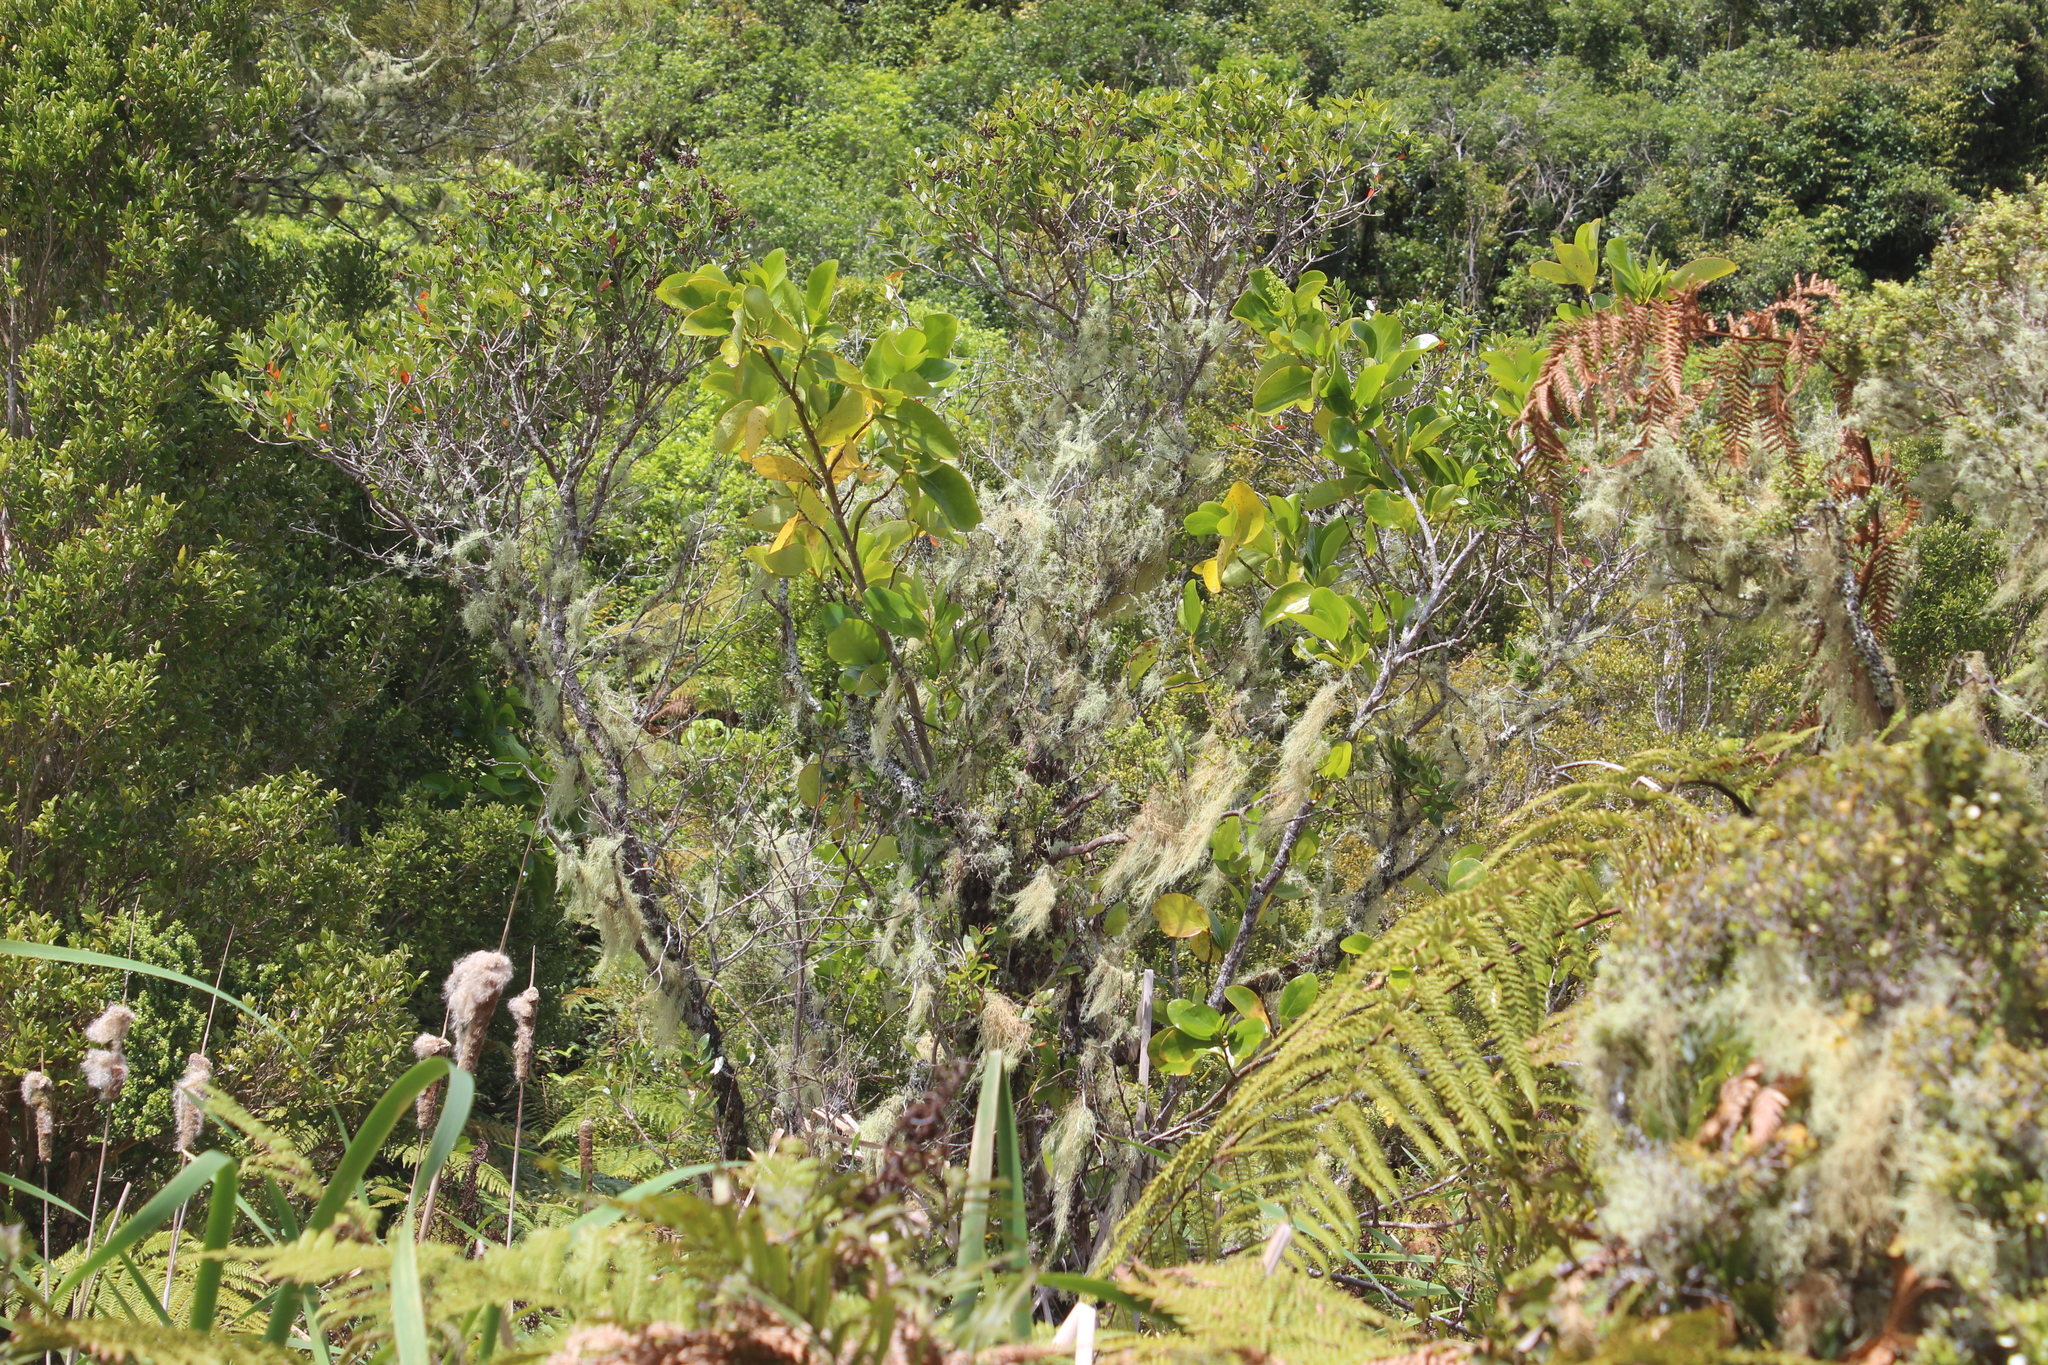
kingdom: Plantae
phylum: Tracheophyta
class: Magnoliopsida
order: Apiales
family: Griseliniaceae
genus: Griselinia
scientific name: Griselinia lucida
